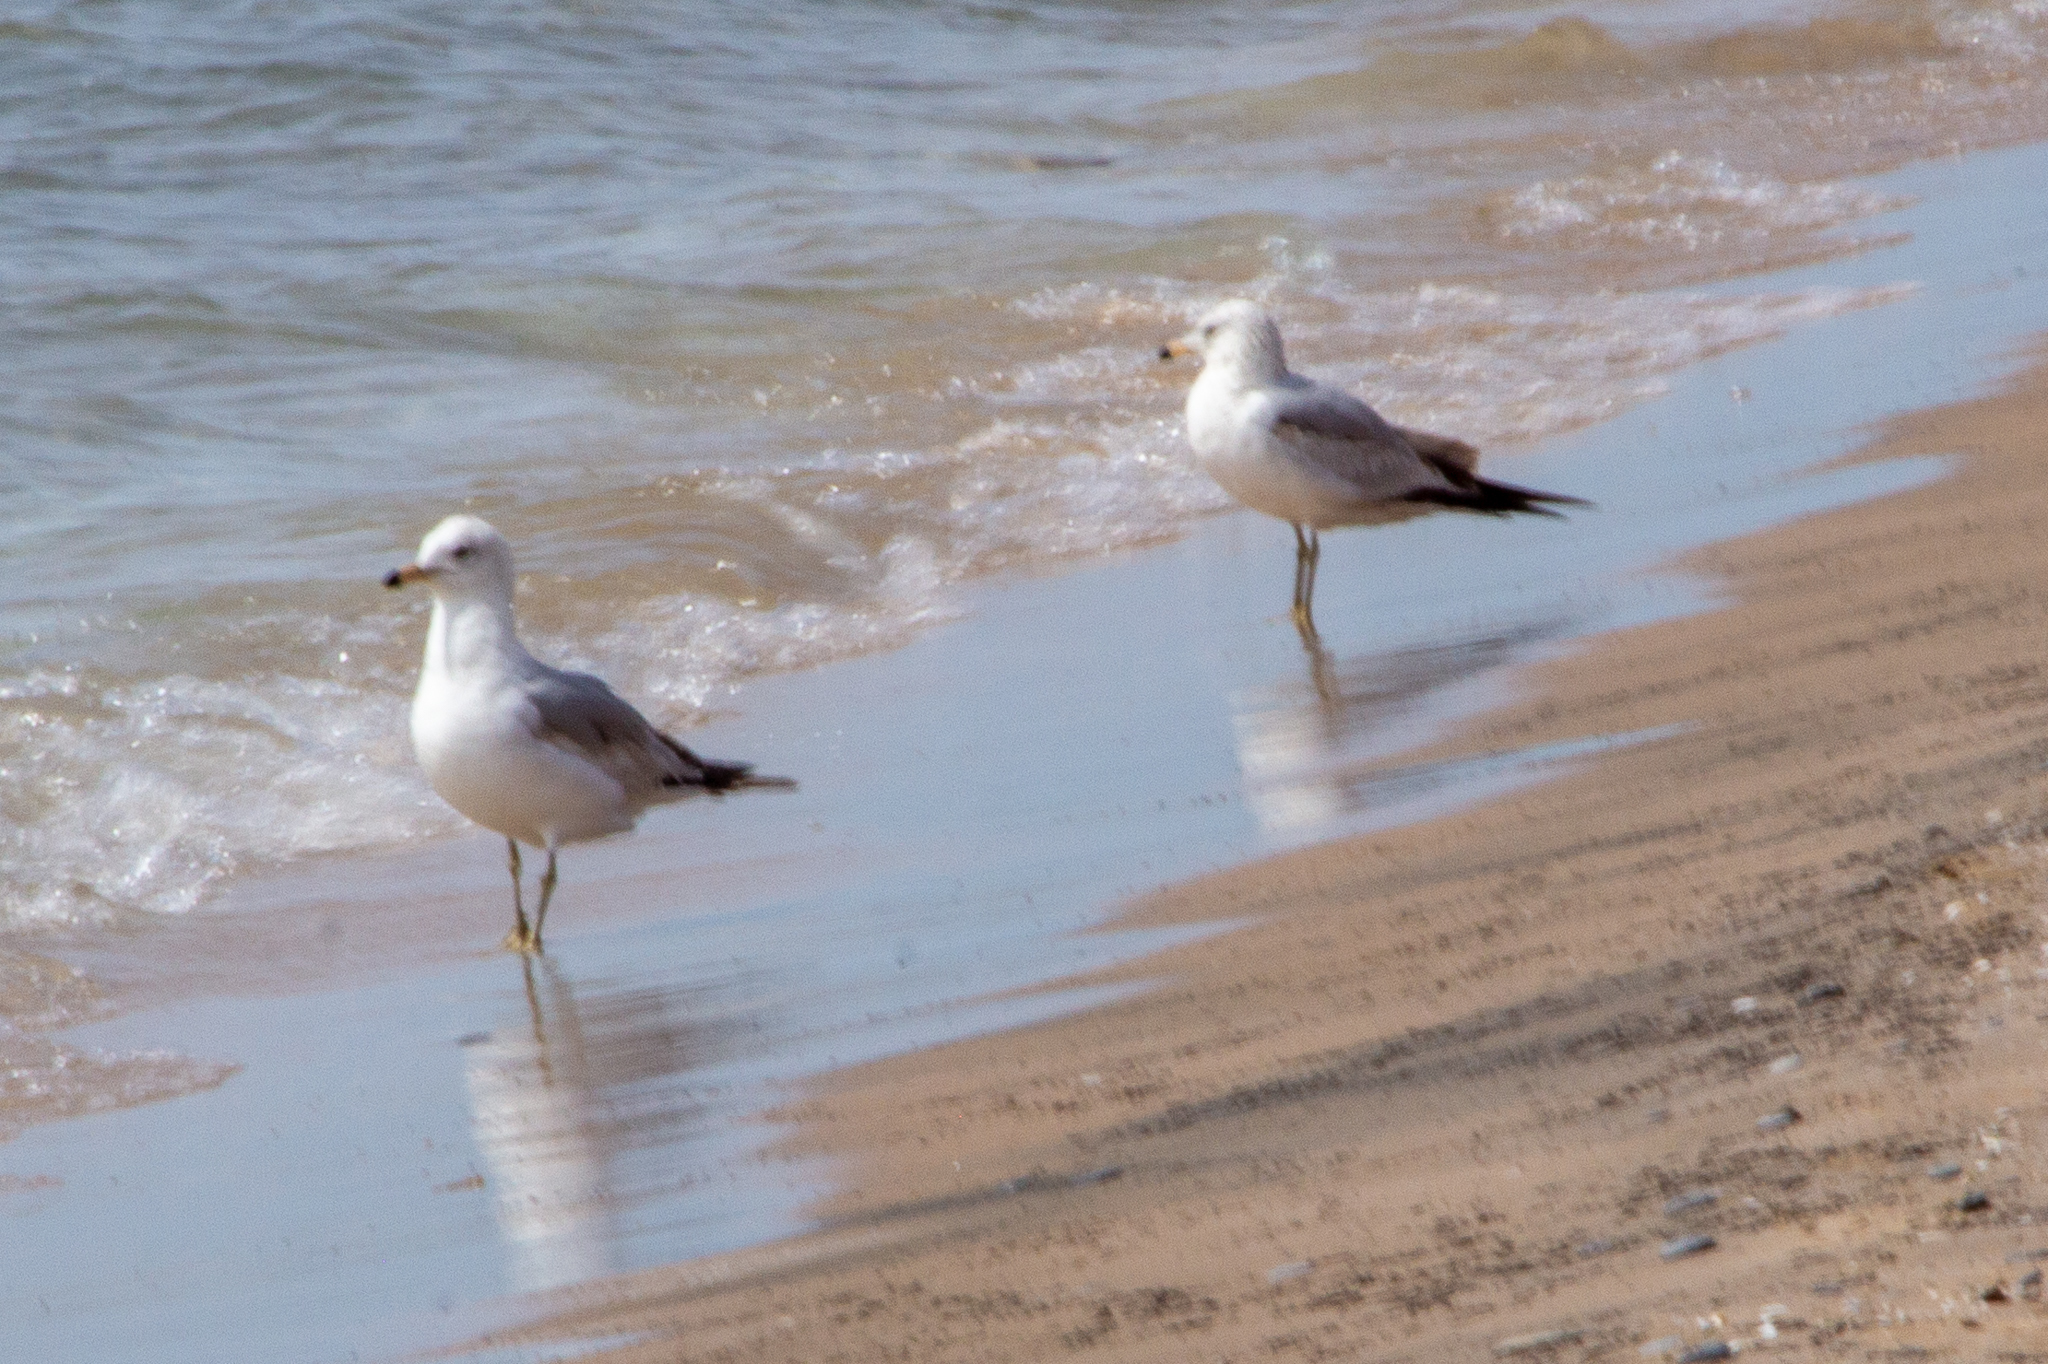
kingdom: Animalia
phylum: Chordata
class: Aves
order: Charadriiformes
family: Laridae
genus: Larus
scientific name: Larus delawarensis
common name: Ring-billed gull
